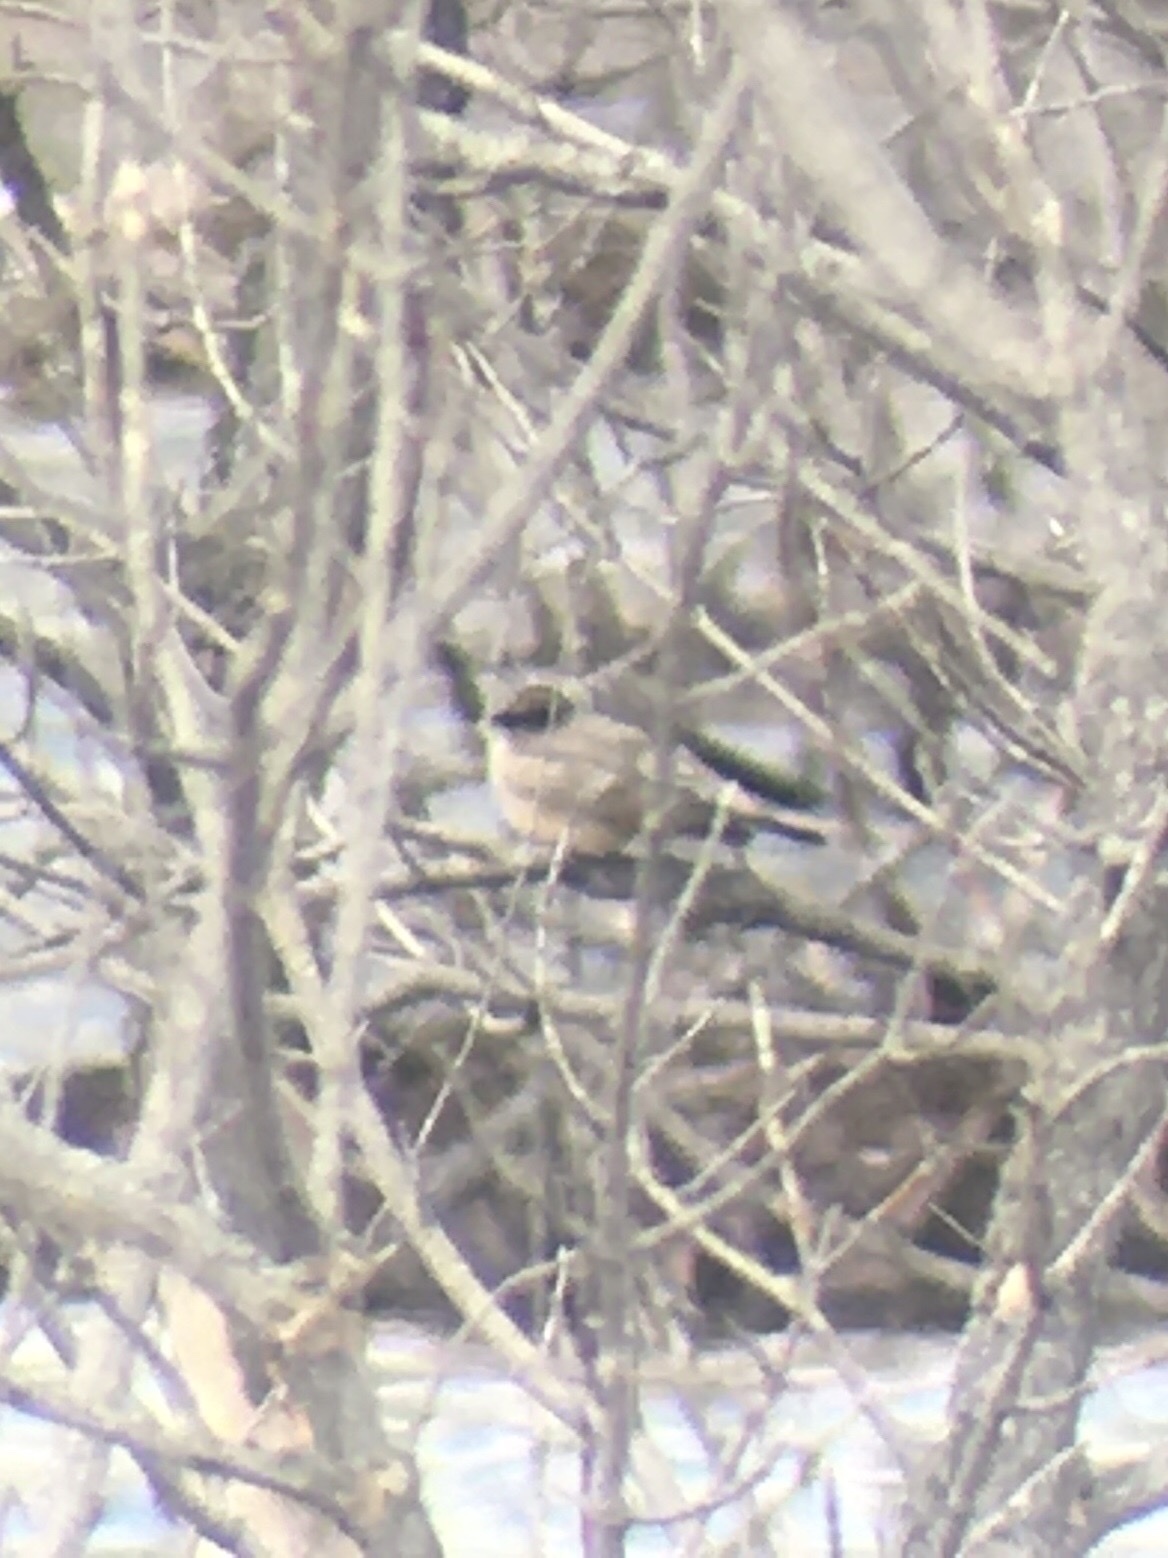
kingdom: Animalia
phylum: Chordata
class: Aves
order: Passeriformes
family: Tyrannidae
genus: Sayornis
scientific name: Sayornis saya
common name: Say's phoebe
